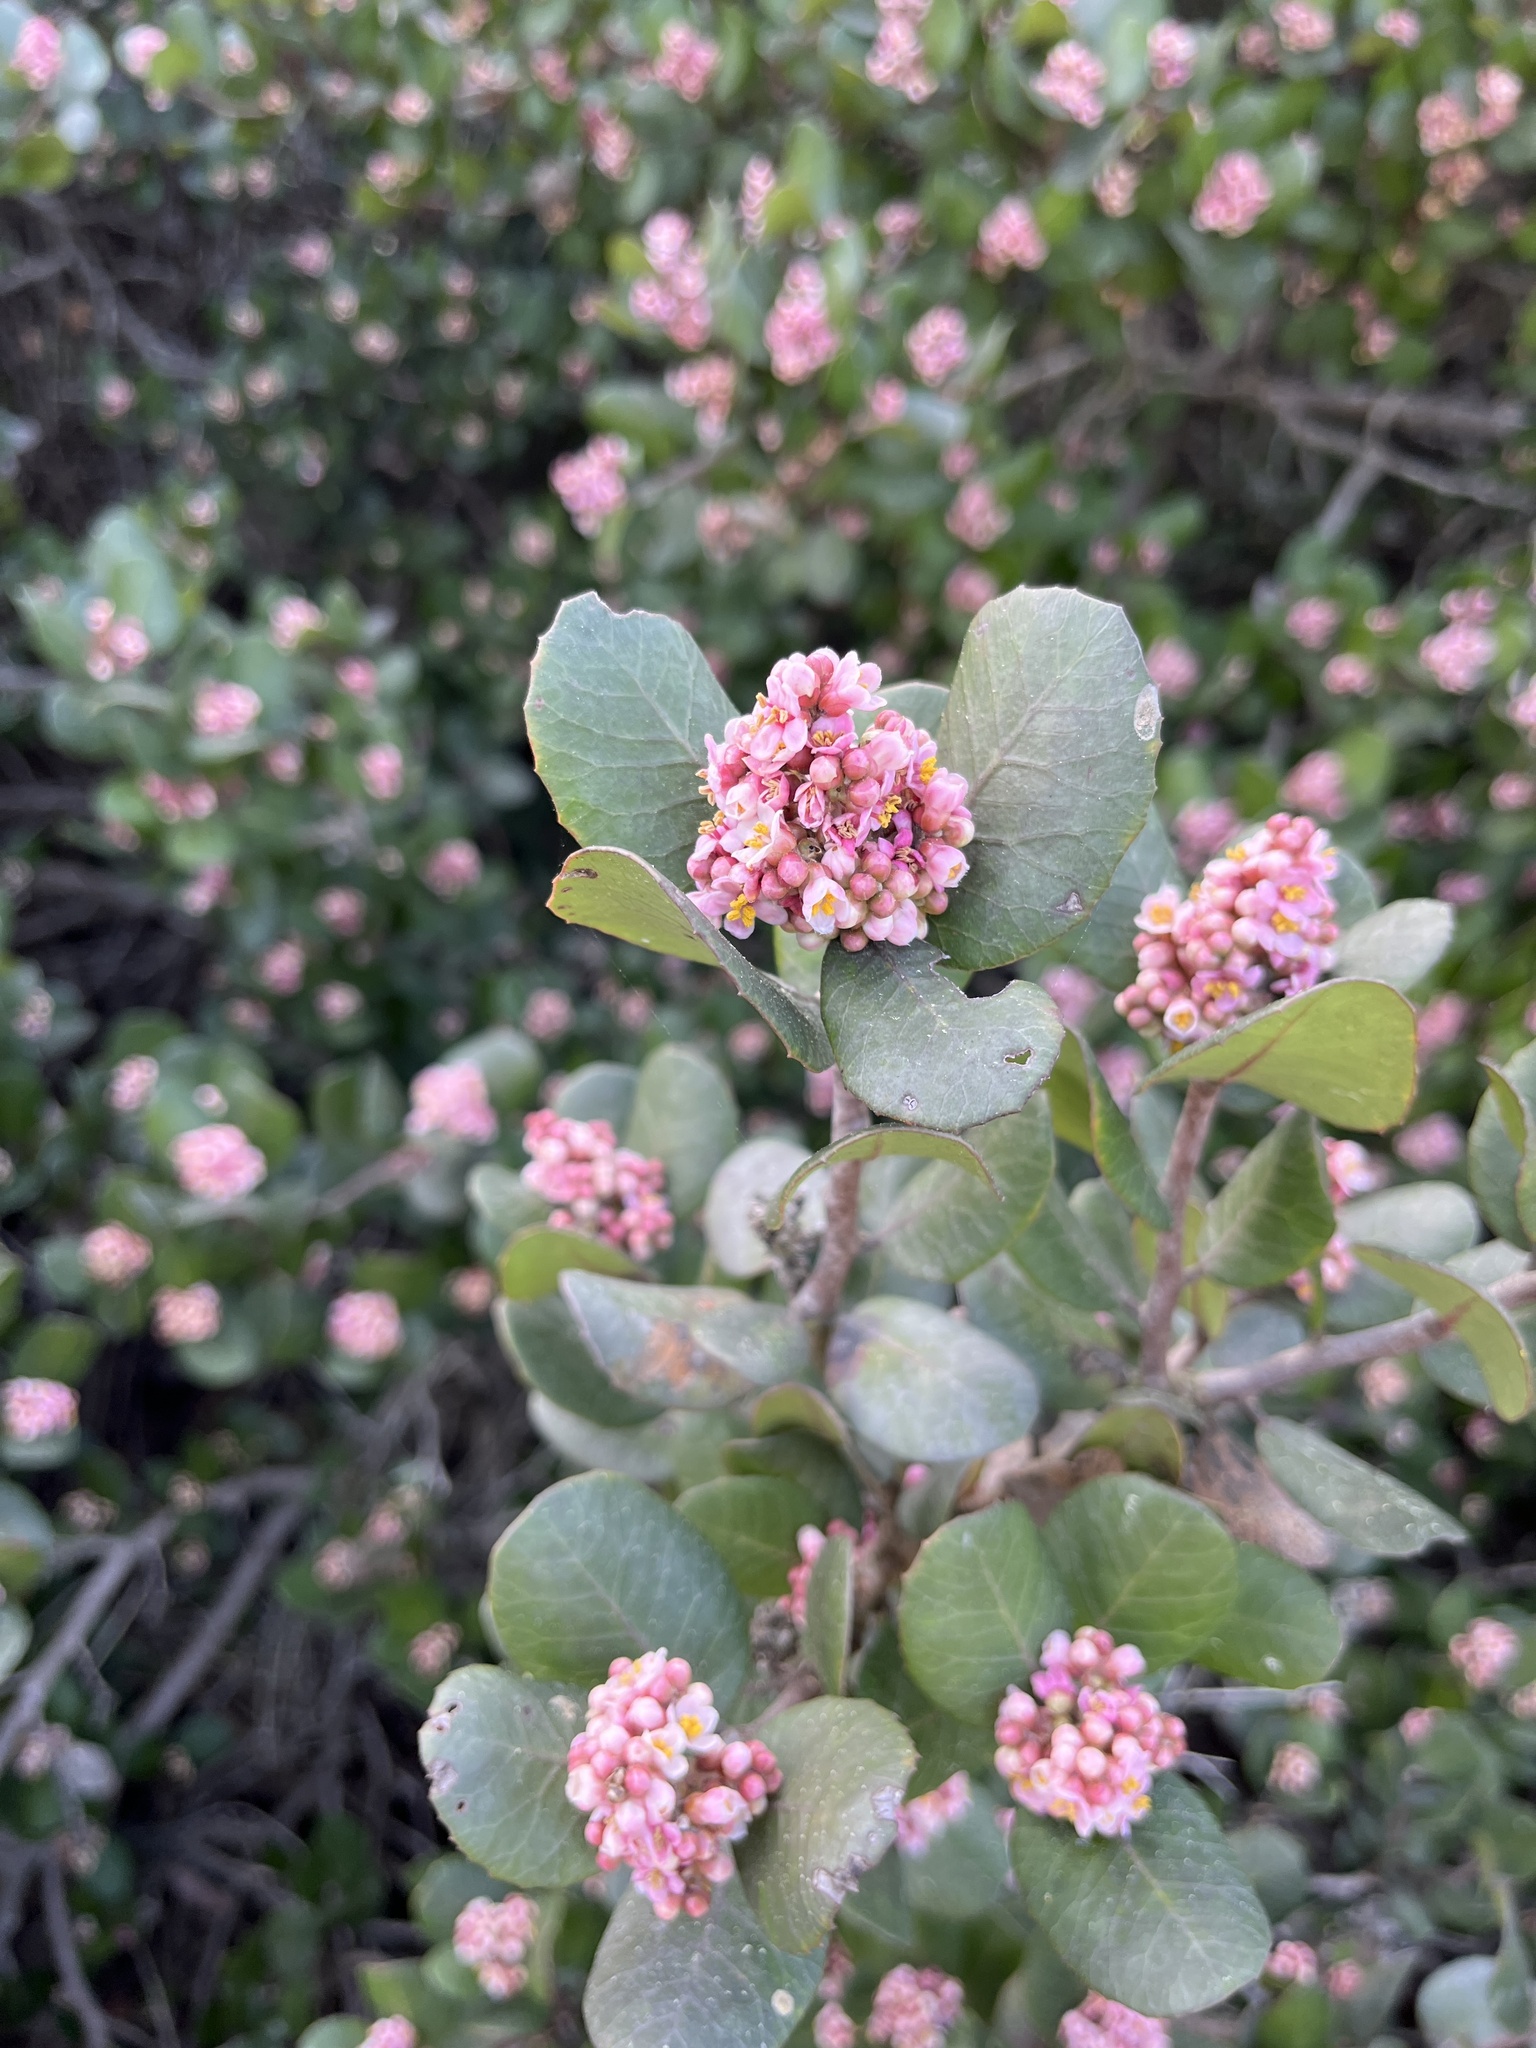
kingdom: Plantae
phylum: Tracheophyta
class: Magnoliopsida
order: Sapindales
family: Anacardiaceae
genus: Rhus
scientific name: Rhus integrifolia
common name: Lemonade sumac
